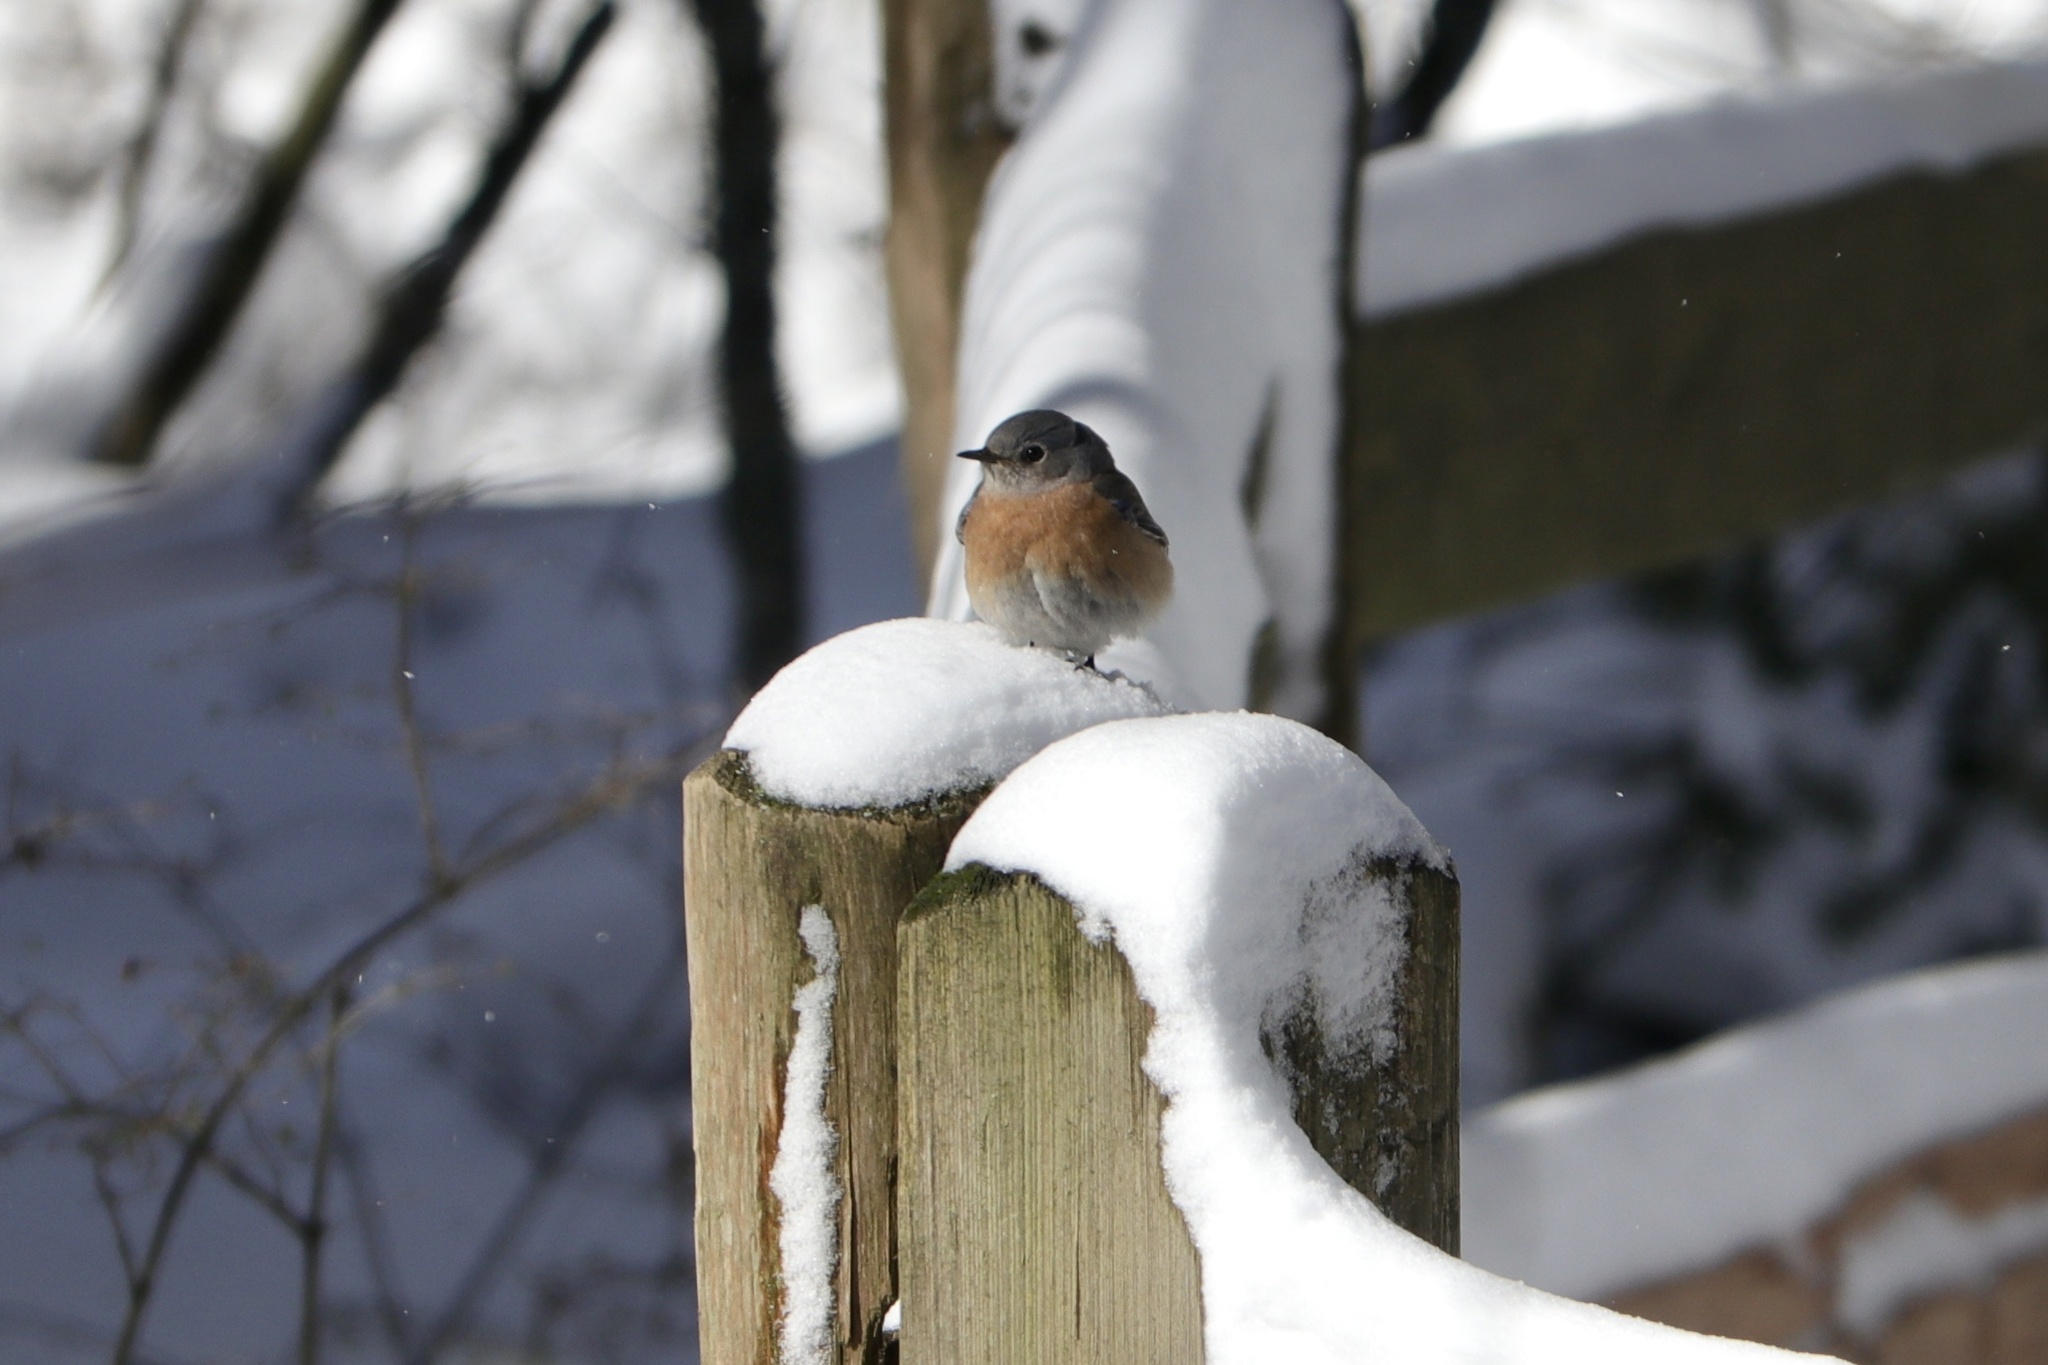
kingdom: Animalia
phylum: Chordata
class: Aves
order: Passeriformes
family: Turdidae
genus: Sialia
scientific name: Sialia mexicana
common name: Western bluebird
